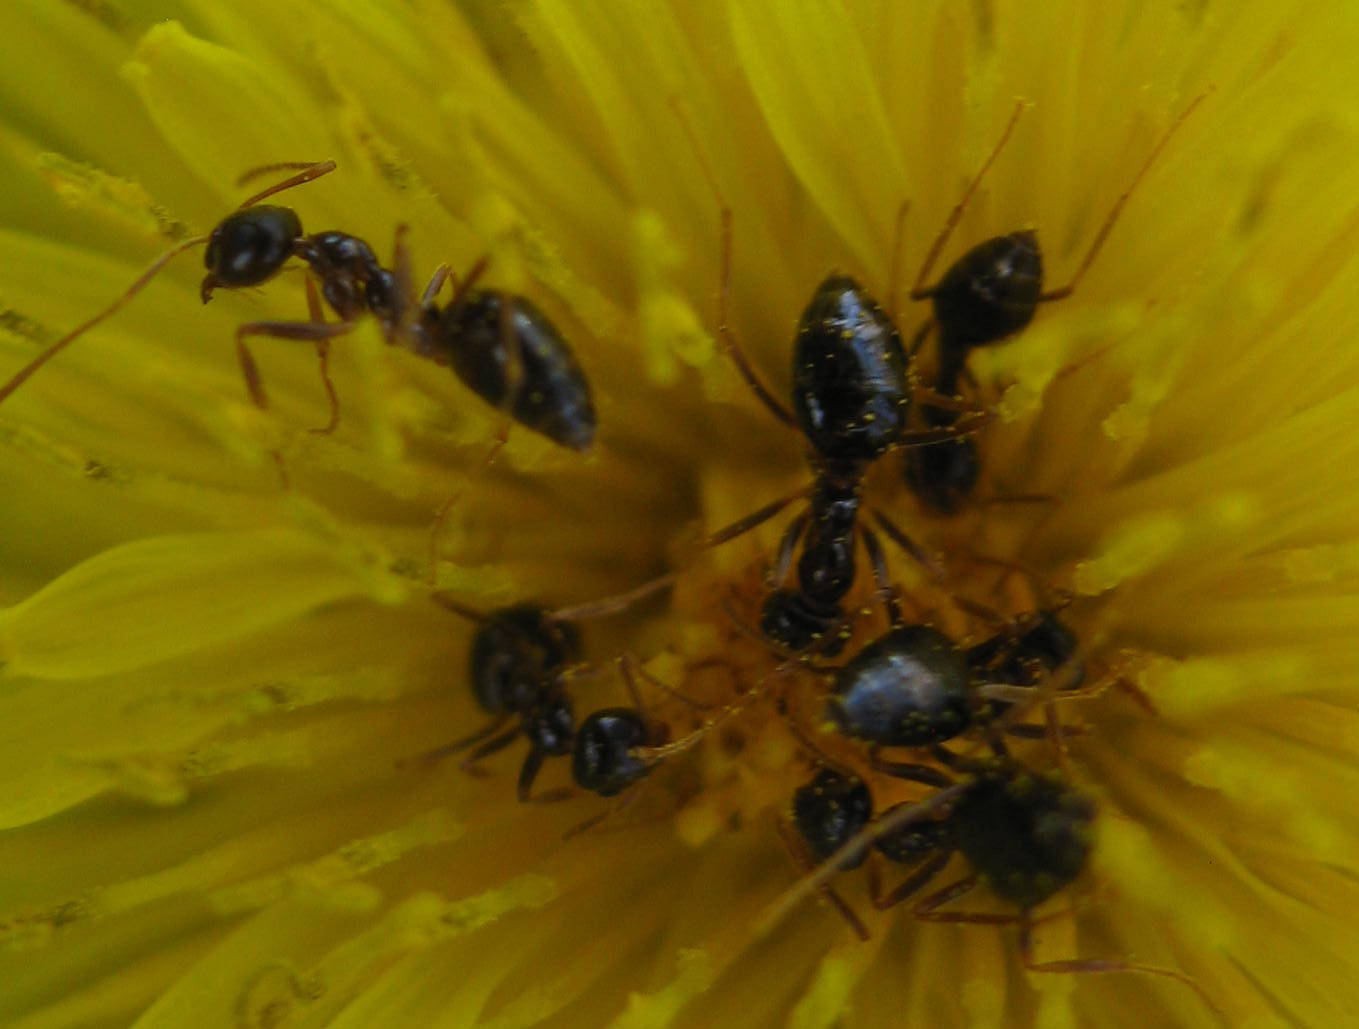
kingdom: Animalia
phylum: Arthropoda
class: Insecta
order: Hymenoptera
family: Formicidae
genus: Prenolepis
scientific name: Prenolepis imparis
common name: Small honey ant
